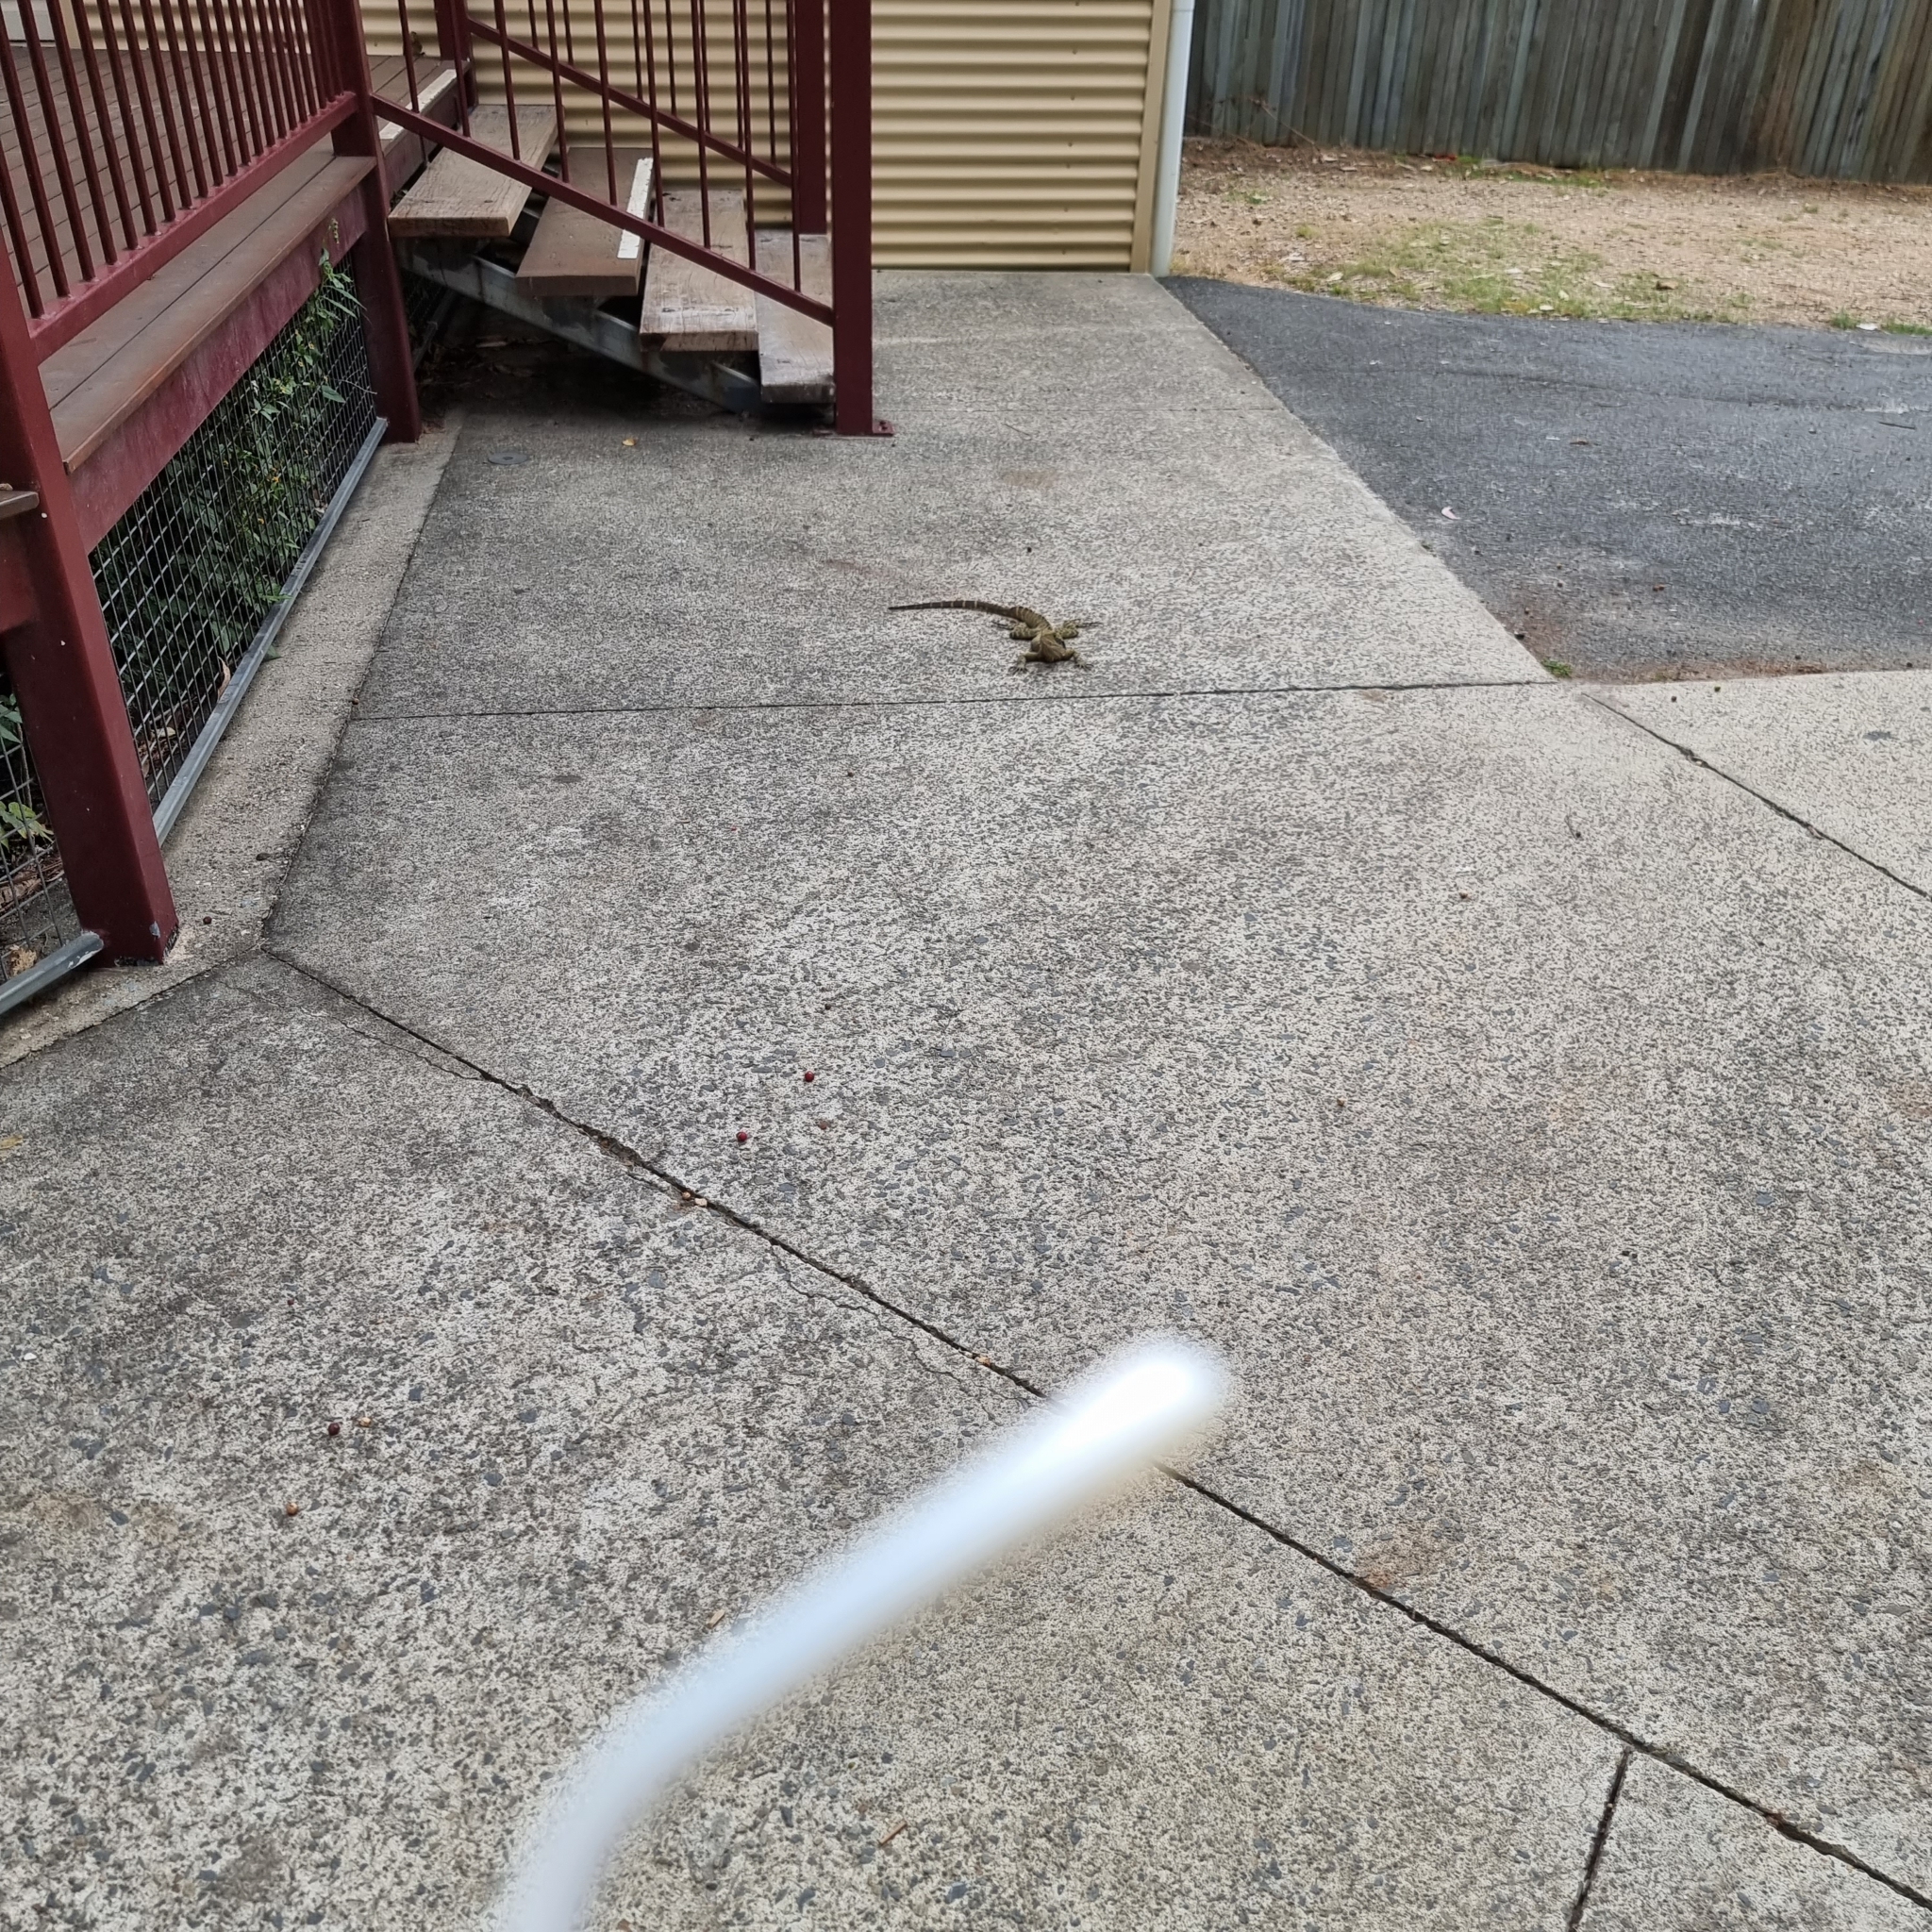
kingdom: Animalia
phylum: Chordata
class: Squamata
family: Agamidae
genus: Intellagama
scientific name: Intellagama lesueurii
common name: Eastern water dragon
